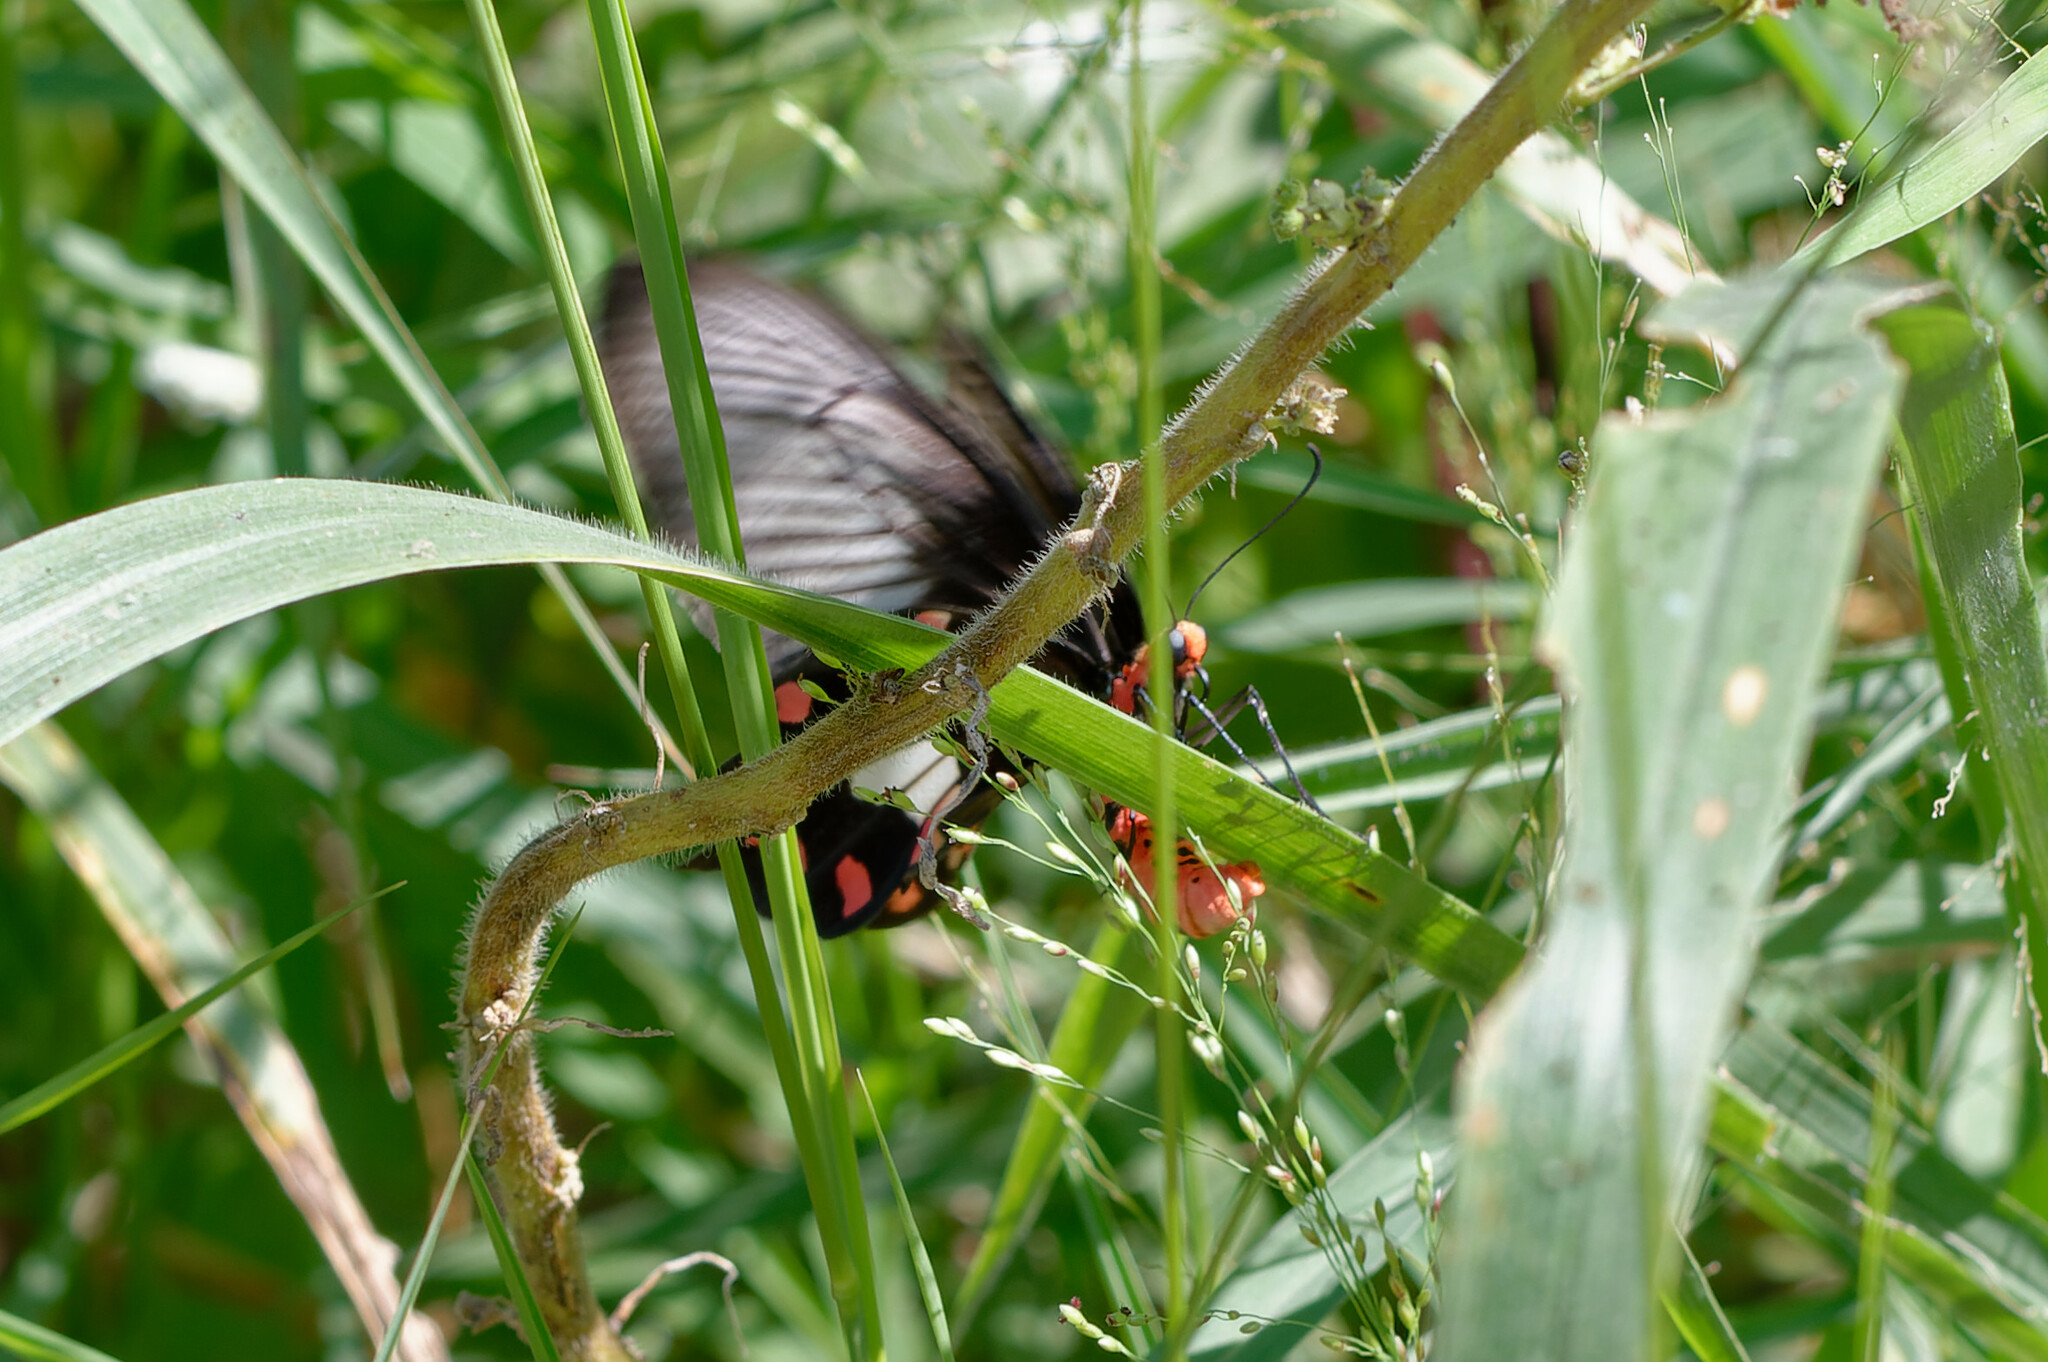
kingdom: Animalia
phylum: Arthropoda
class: Insecta
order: Lepidoptera
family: Papilionidae
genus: Pachliopta
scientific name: Pachliopta aristolochiae
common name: Common rose
